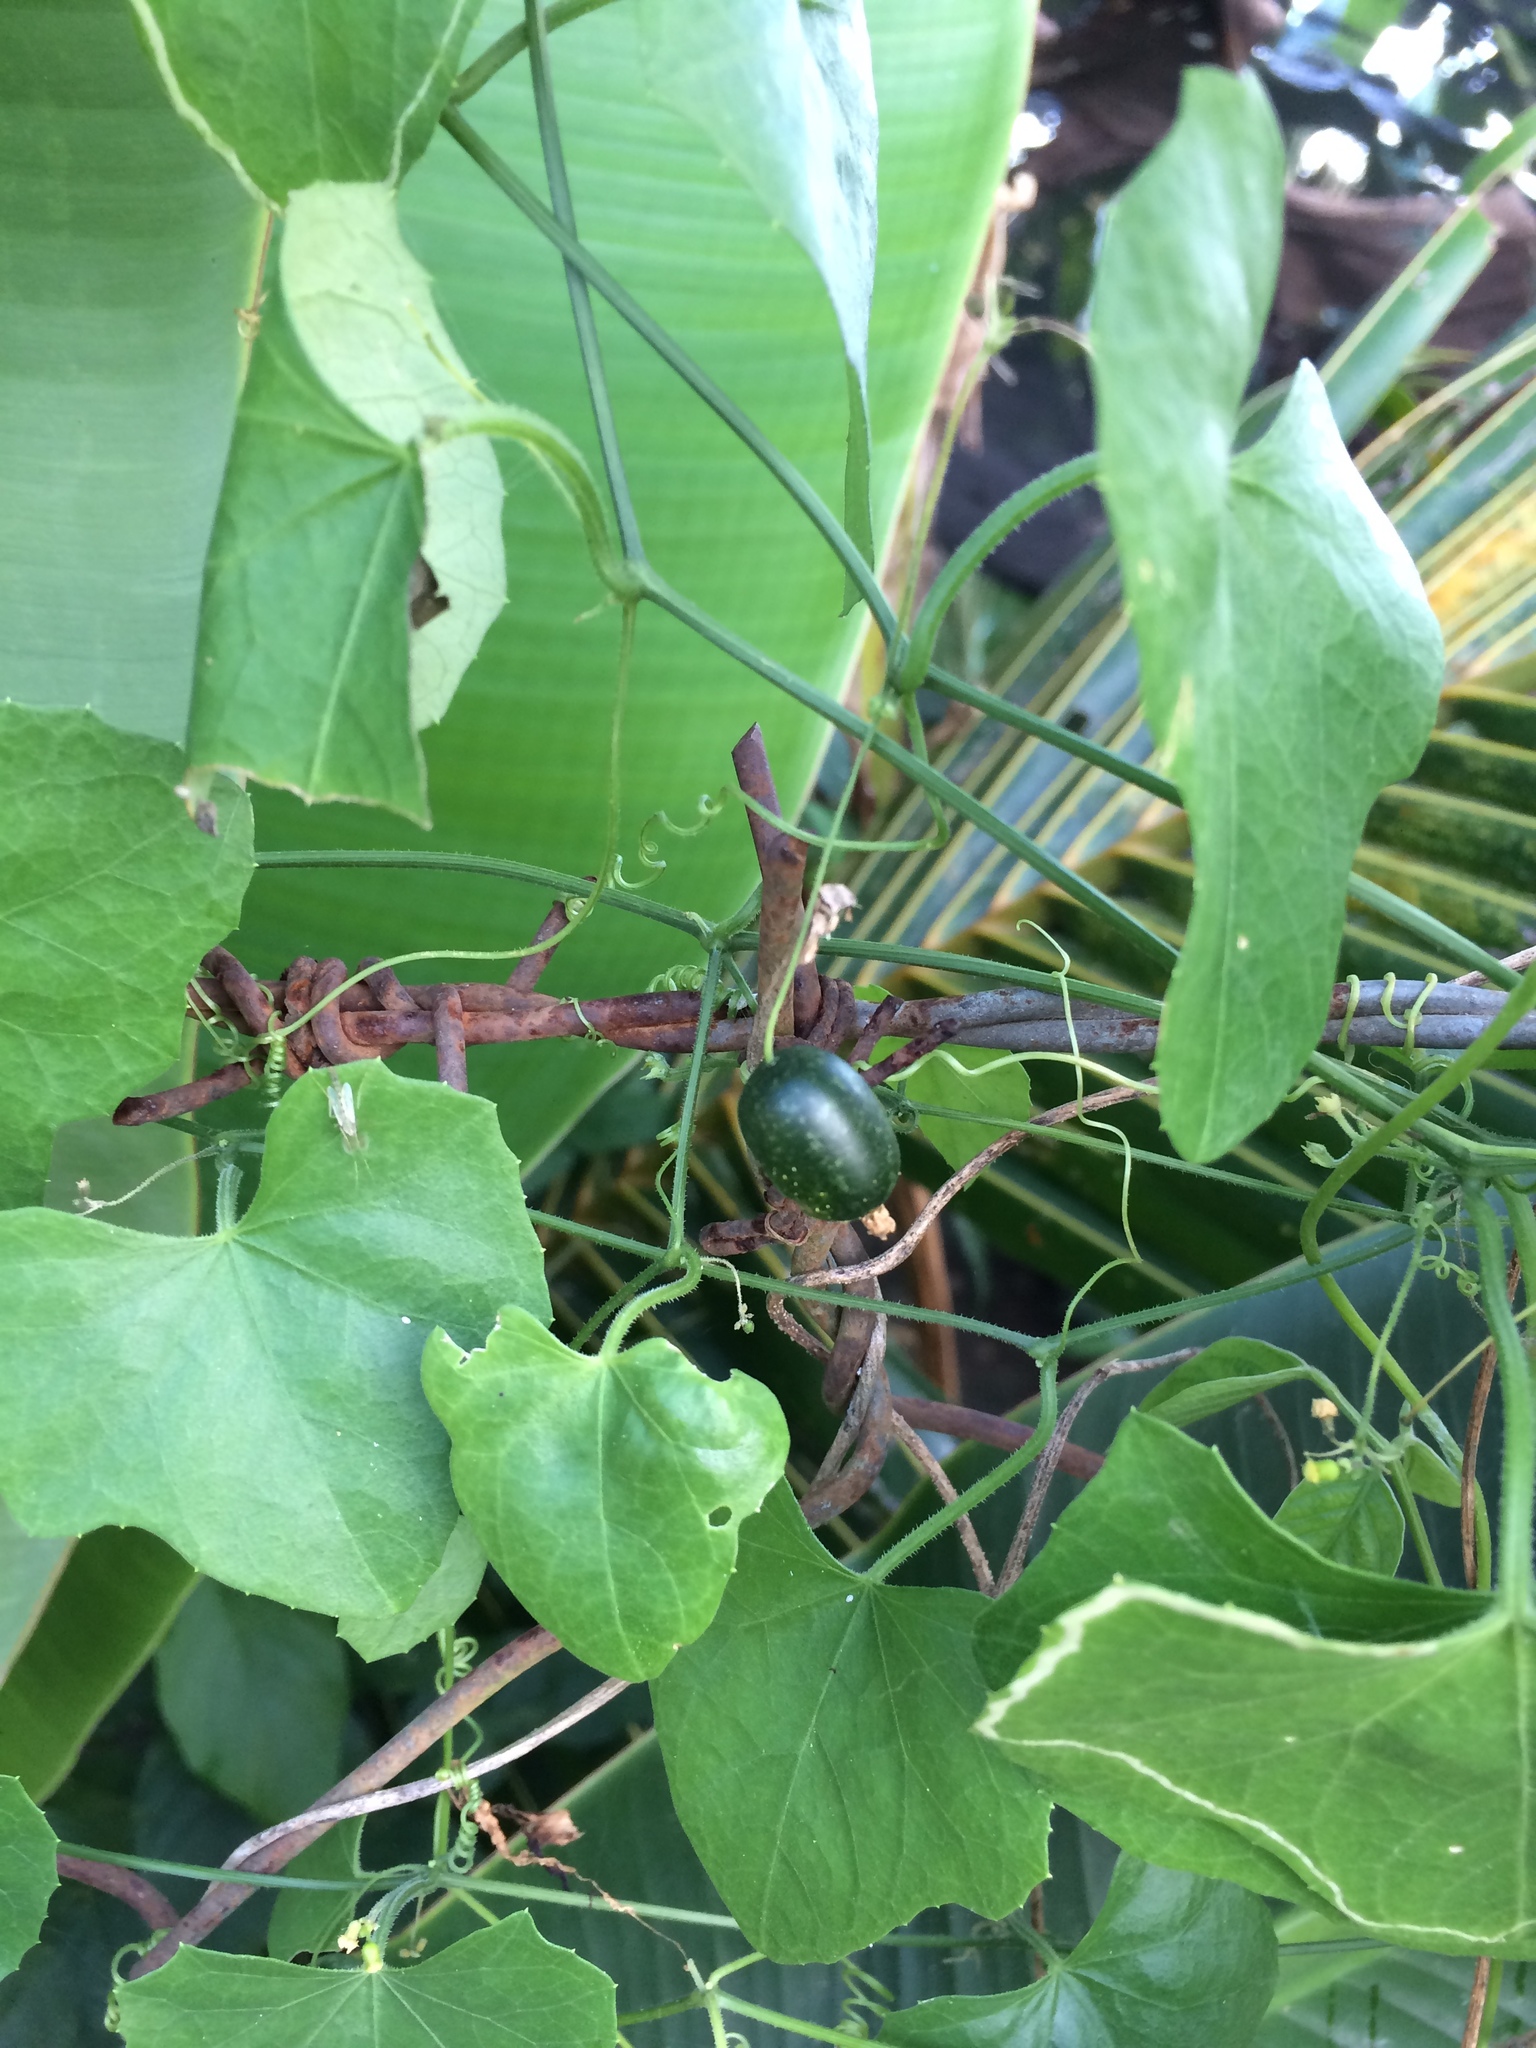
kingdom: Plantae
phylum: Tracheophyta
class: Magnoliopsida
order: Cucurbitales
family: Cucurbitaceae
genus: Melothria
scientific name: Melothria pendula
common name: Creeping-cucumber
